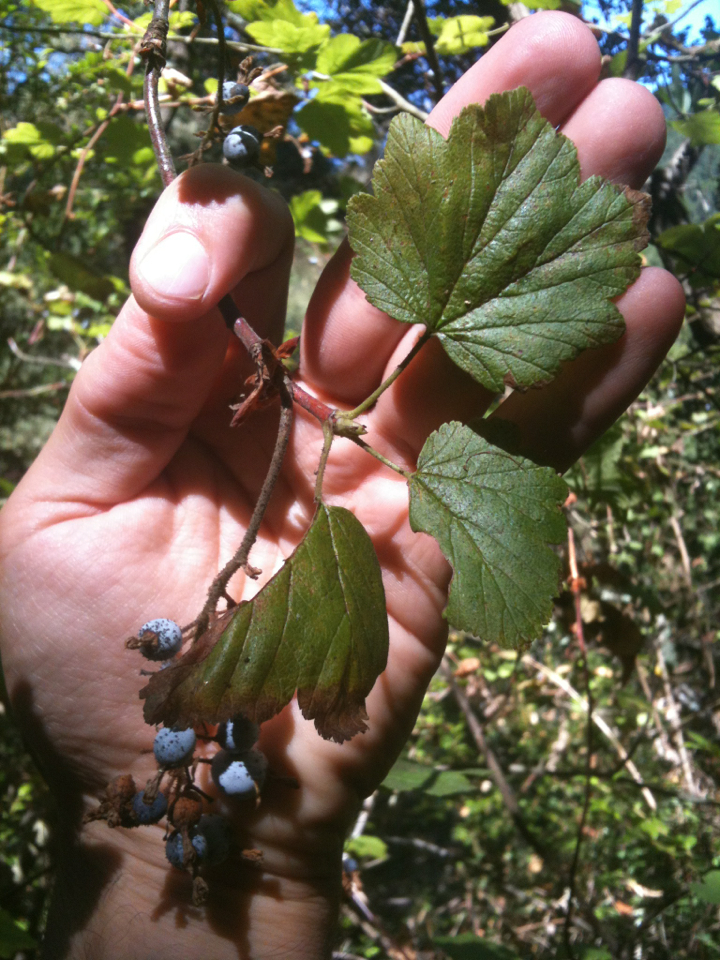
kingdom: Plantae
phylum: Tracheophyta
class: Magnoliopsida
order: Saxifragales
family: Grossulariaceae
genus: Ribes
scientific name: Ribes sanguineum
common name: Flowering currant
